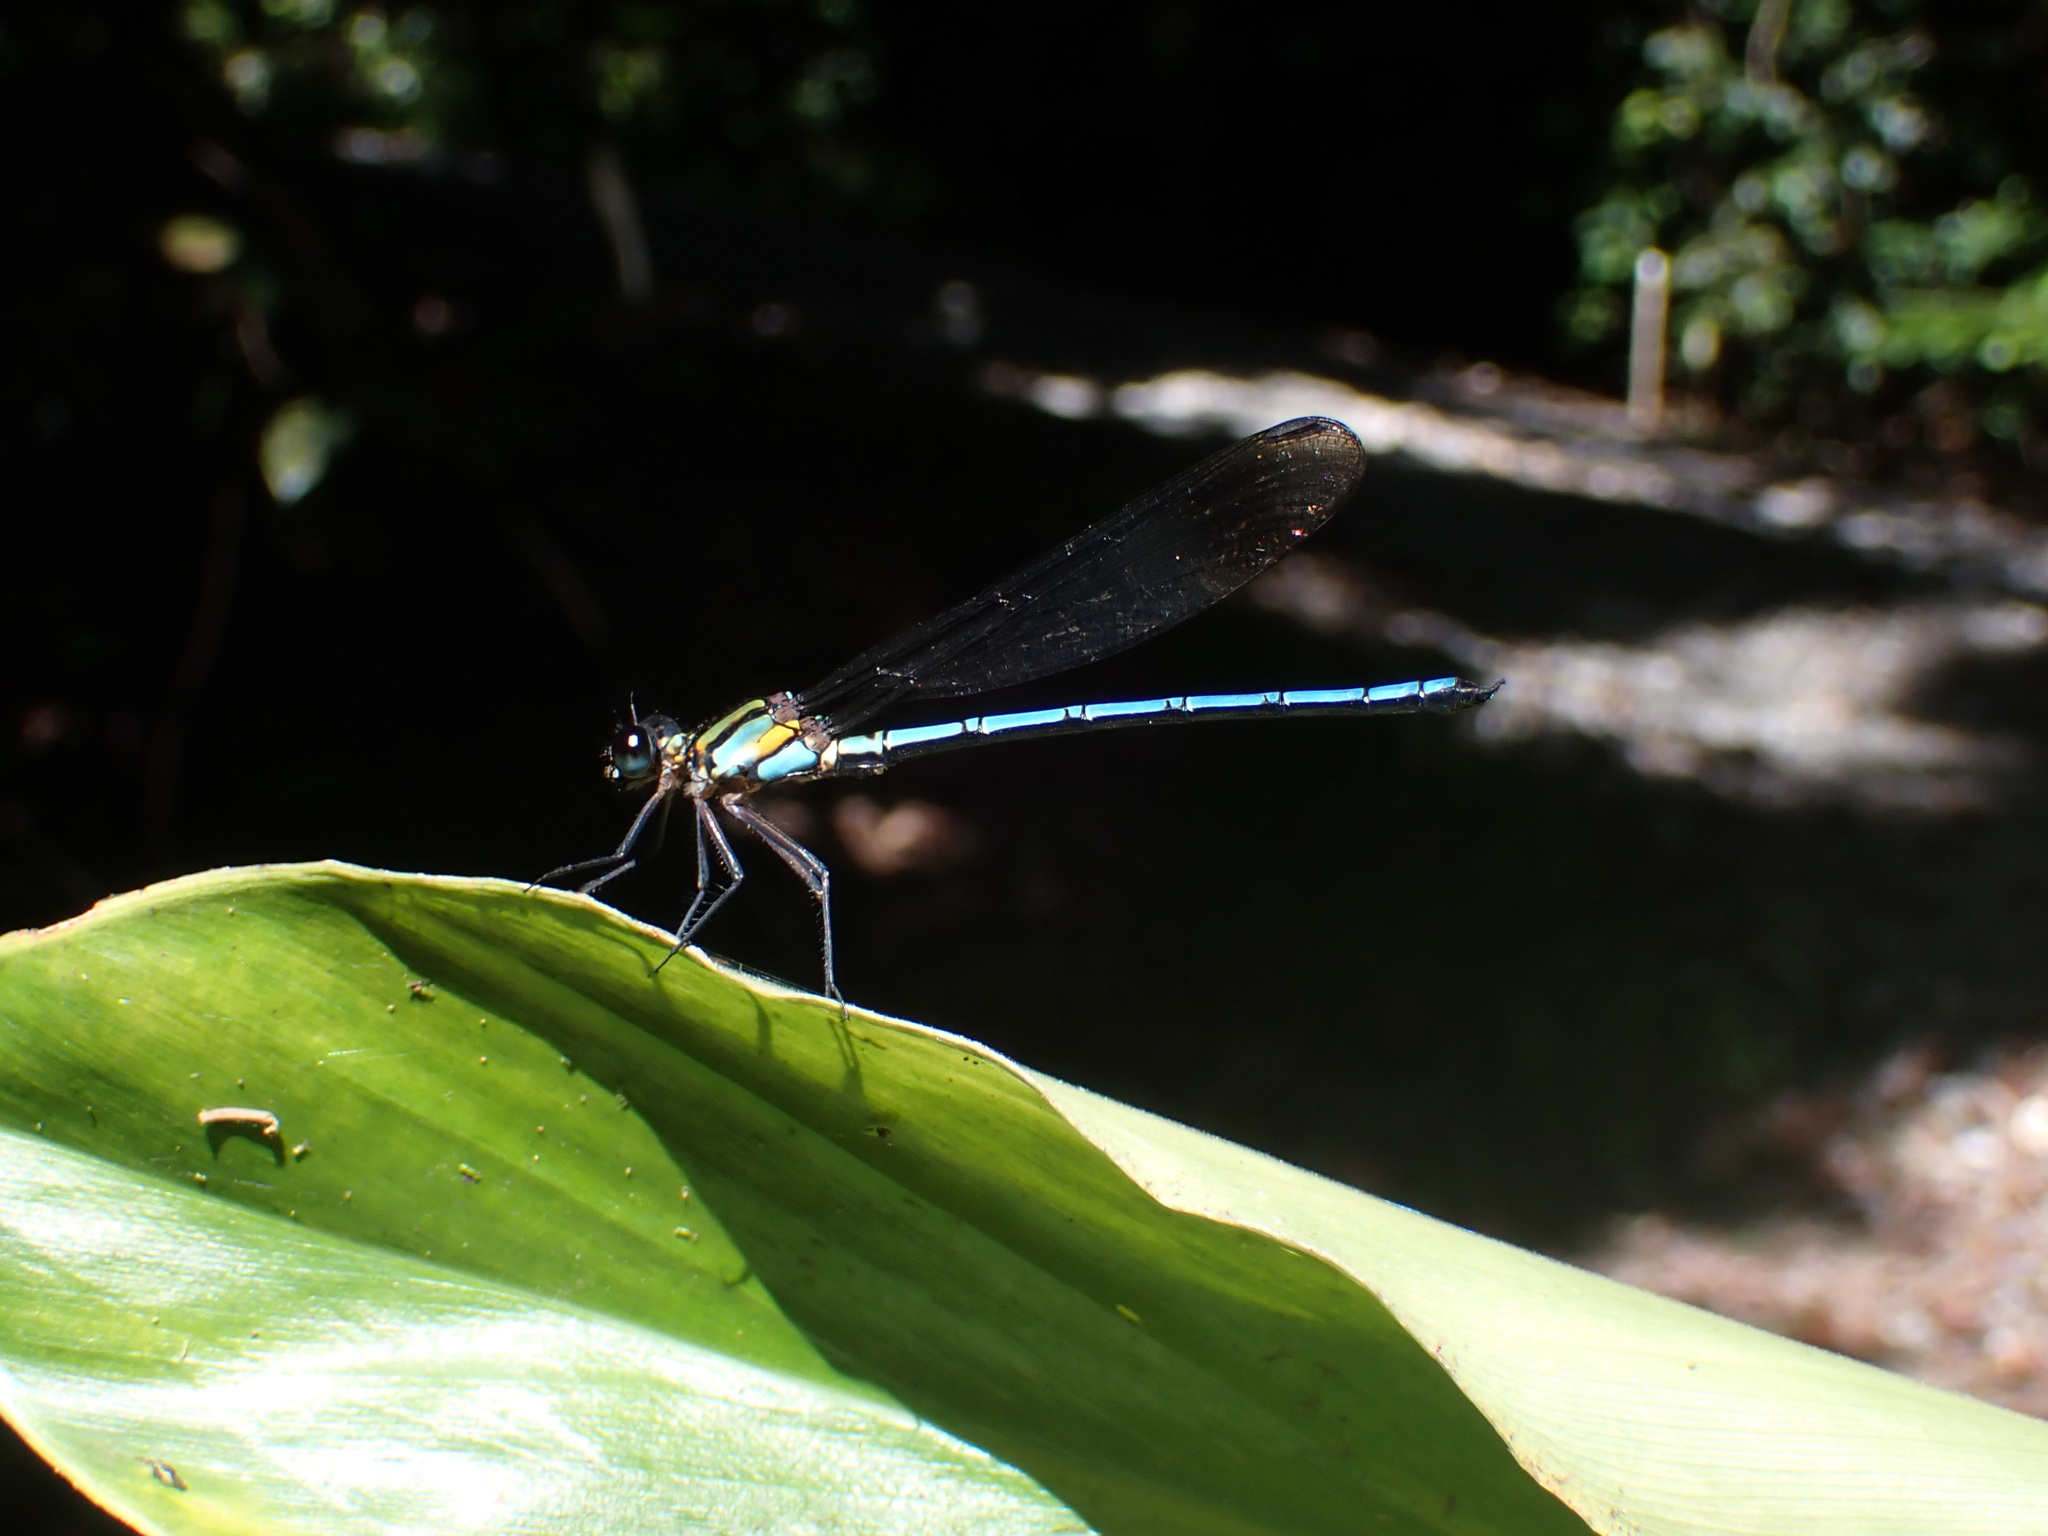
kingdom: Animalia
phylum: Arthropoda
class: Insecta
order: Odonata
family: Lestoideidae
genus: Diphlebia
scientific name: Diphlebia hybridoides
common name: Giant rockmaster
